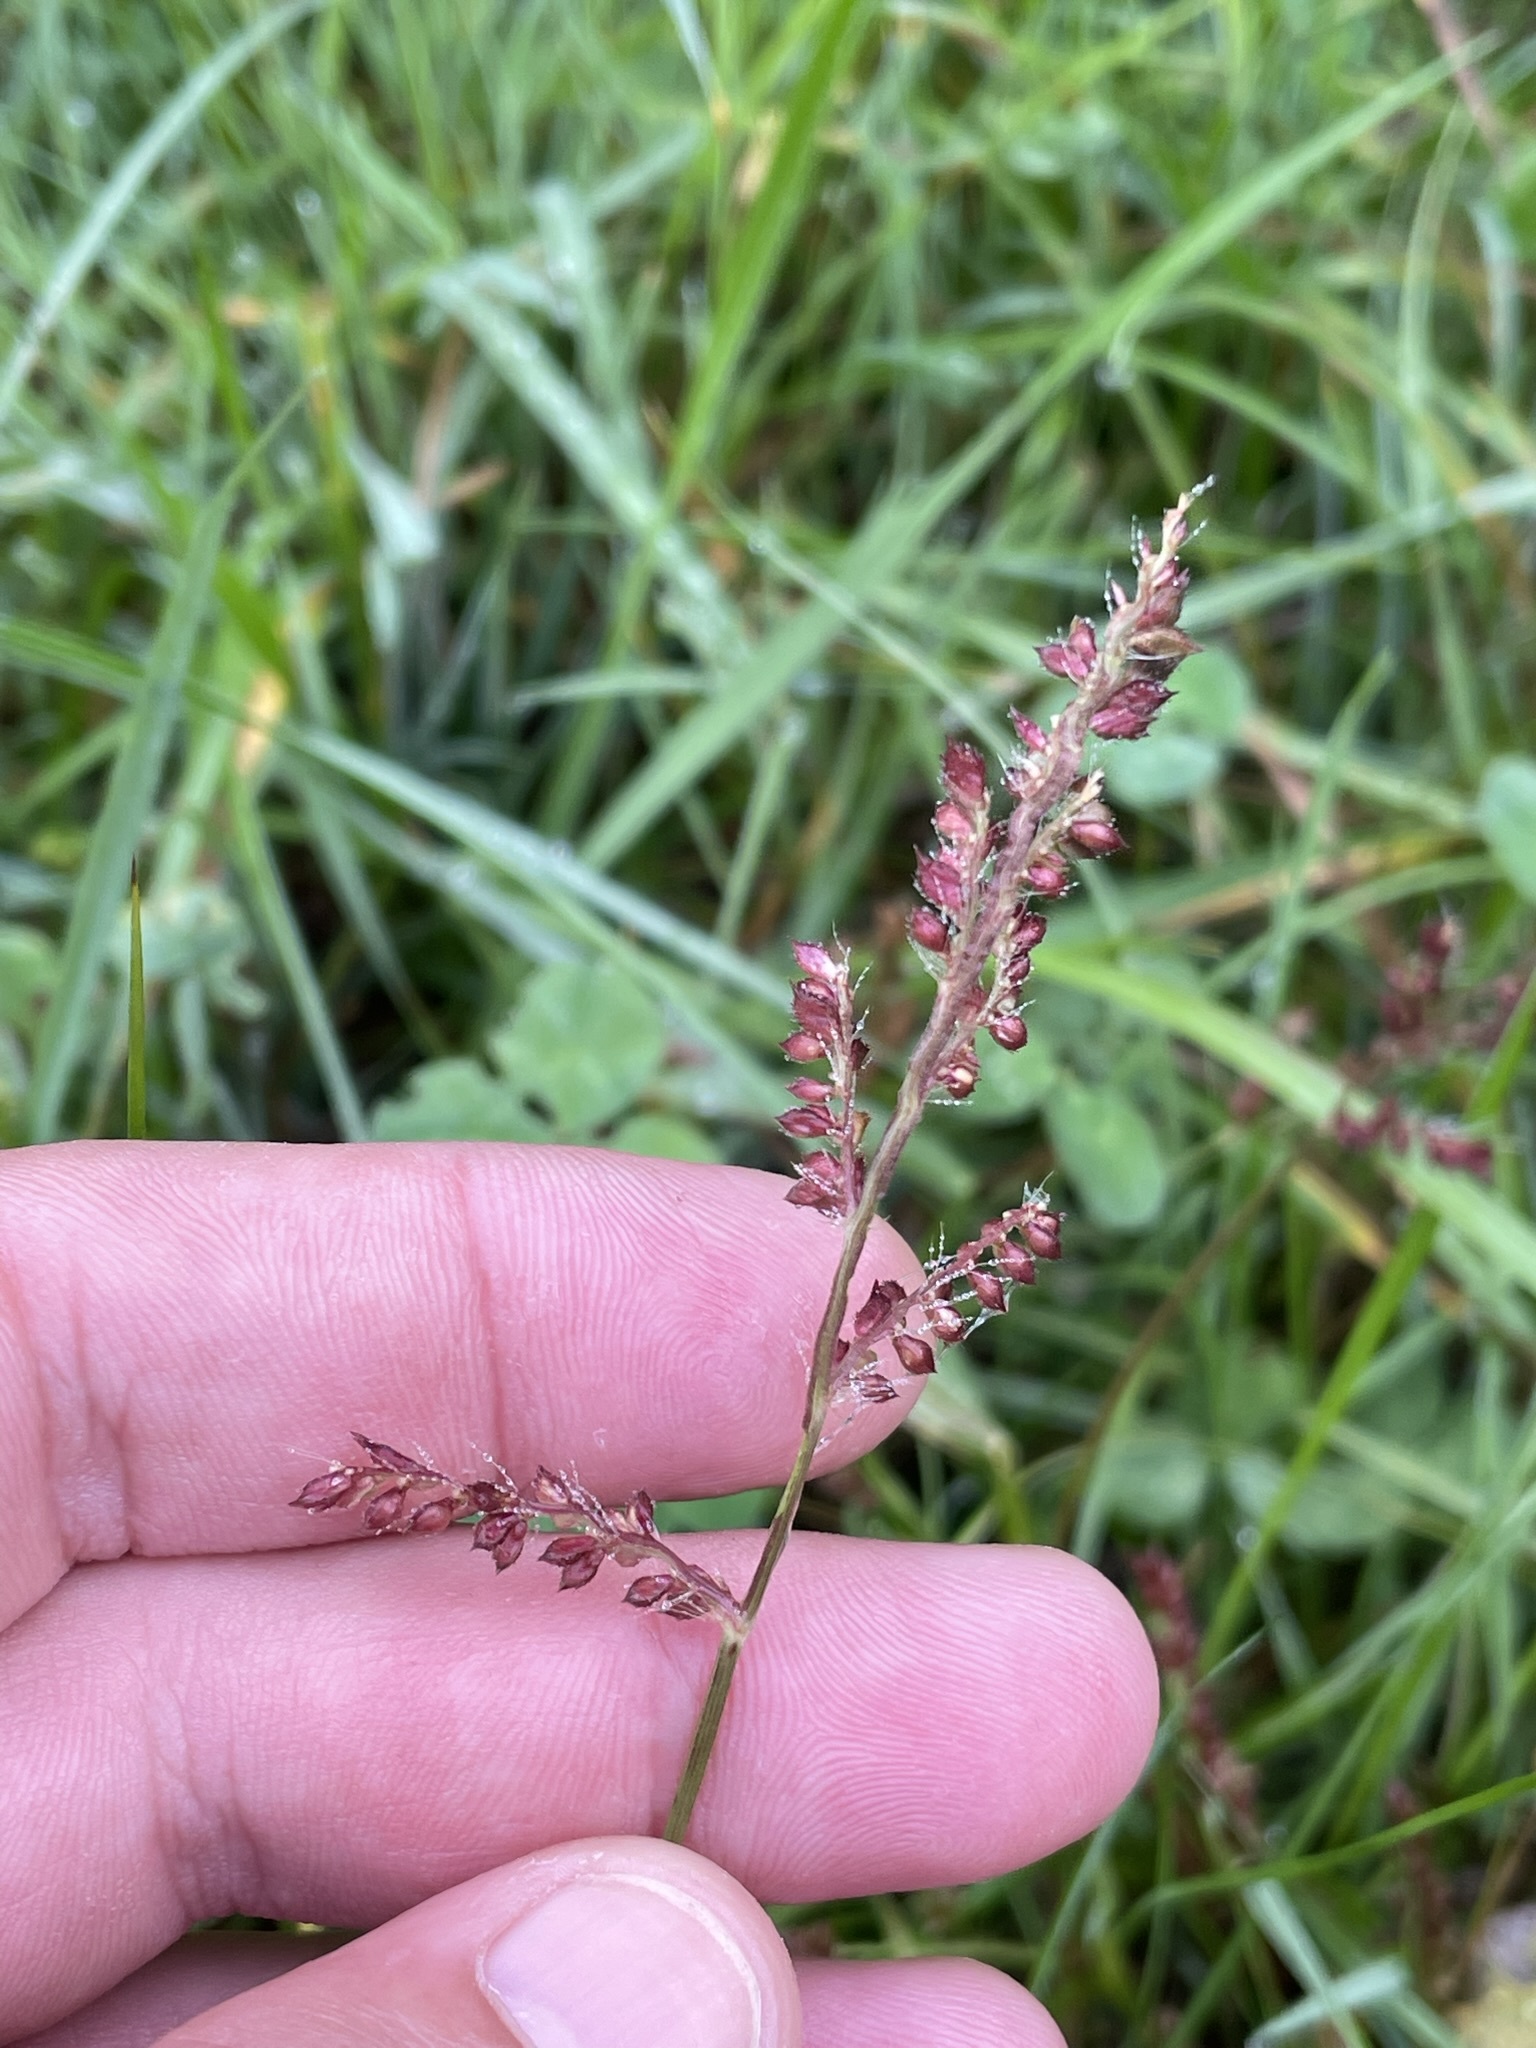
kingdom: Plantae
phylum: Tracheophyta
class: Liliopsida
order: Poales
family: Poaceae
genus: Echinochloa
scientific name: Echinochloa crus-galli
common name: Cockspur
